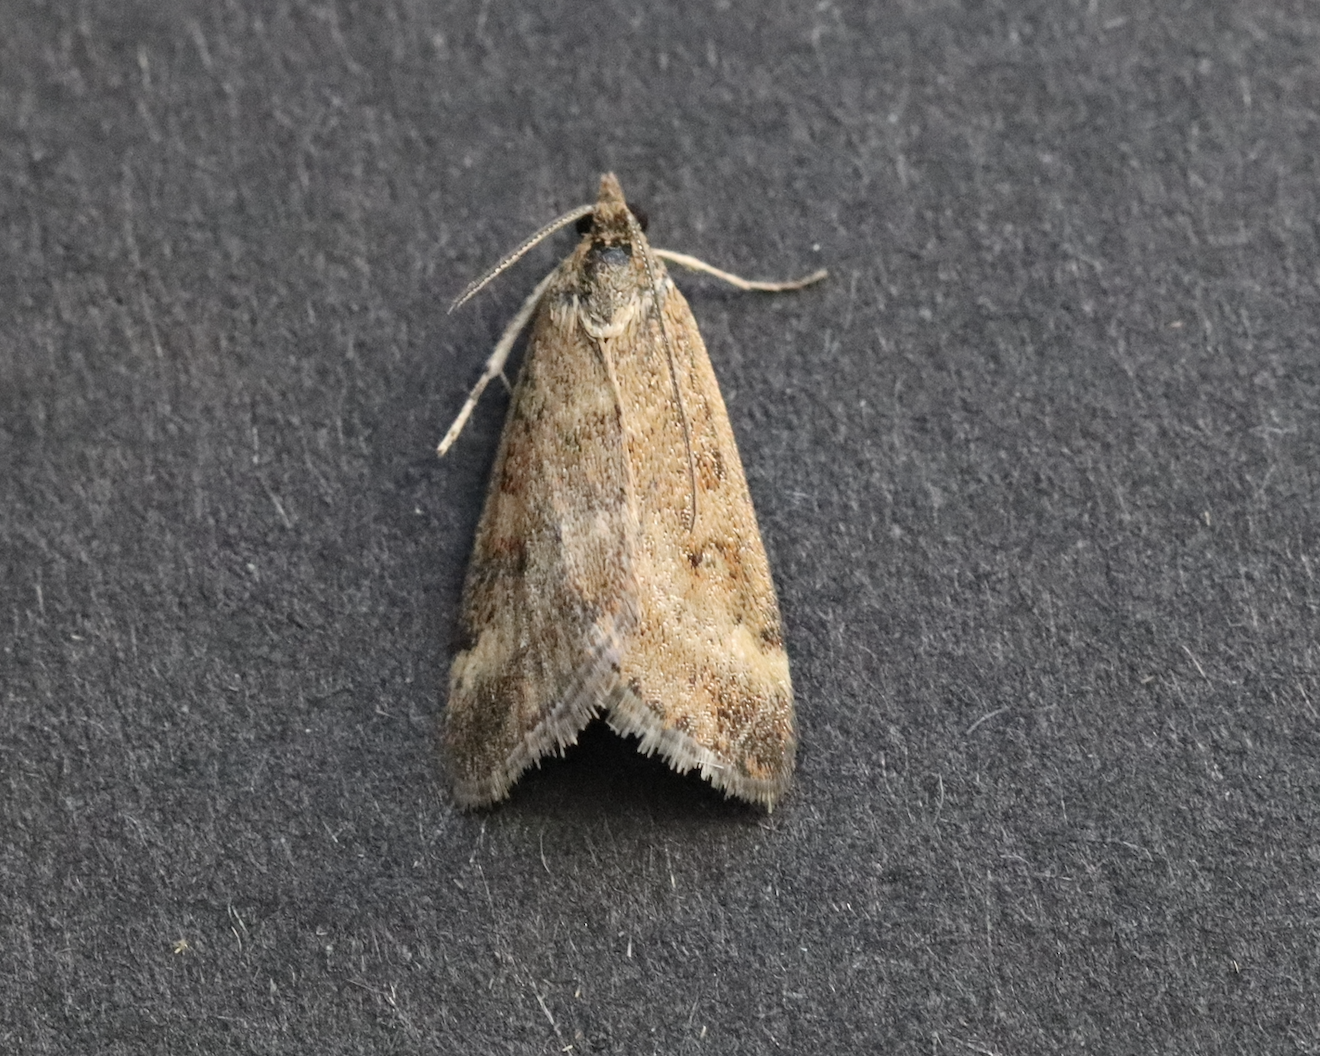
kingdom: Animalia
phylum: Arthropoda
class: Insecta
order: Lepidoptera
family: Crambidae
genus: Pyrausta
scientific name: Pyrausta despicata
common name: Straw-barred pearl
